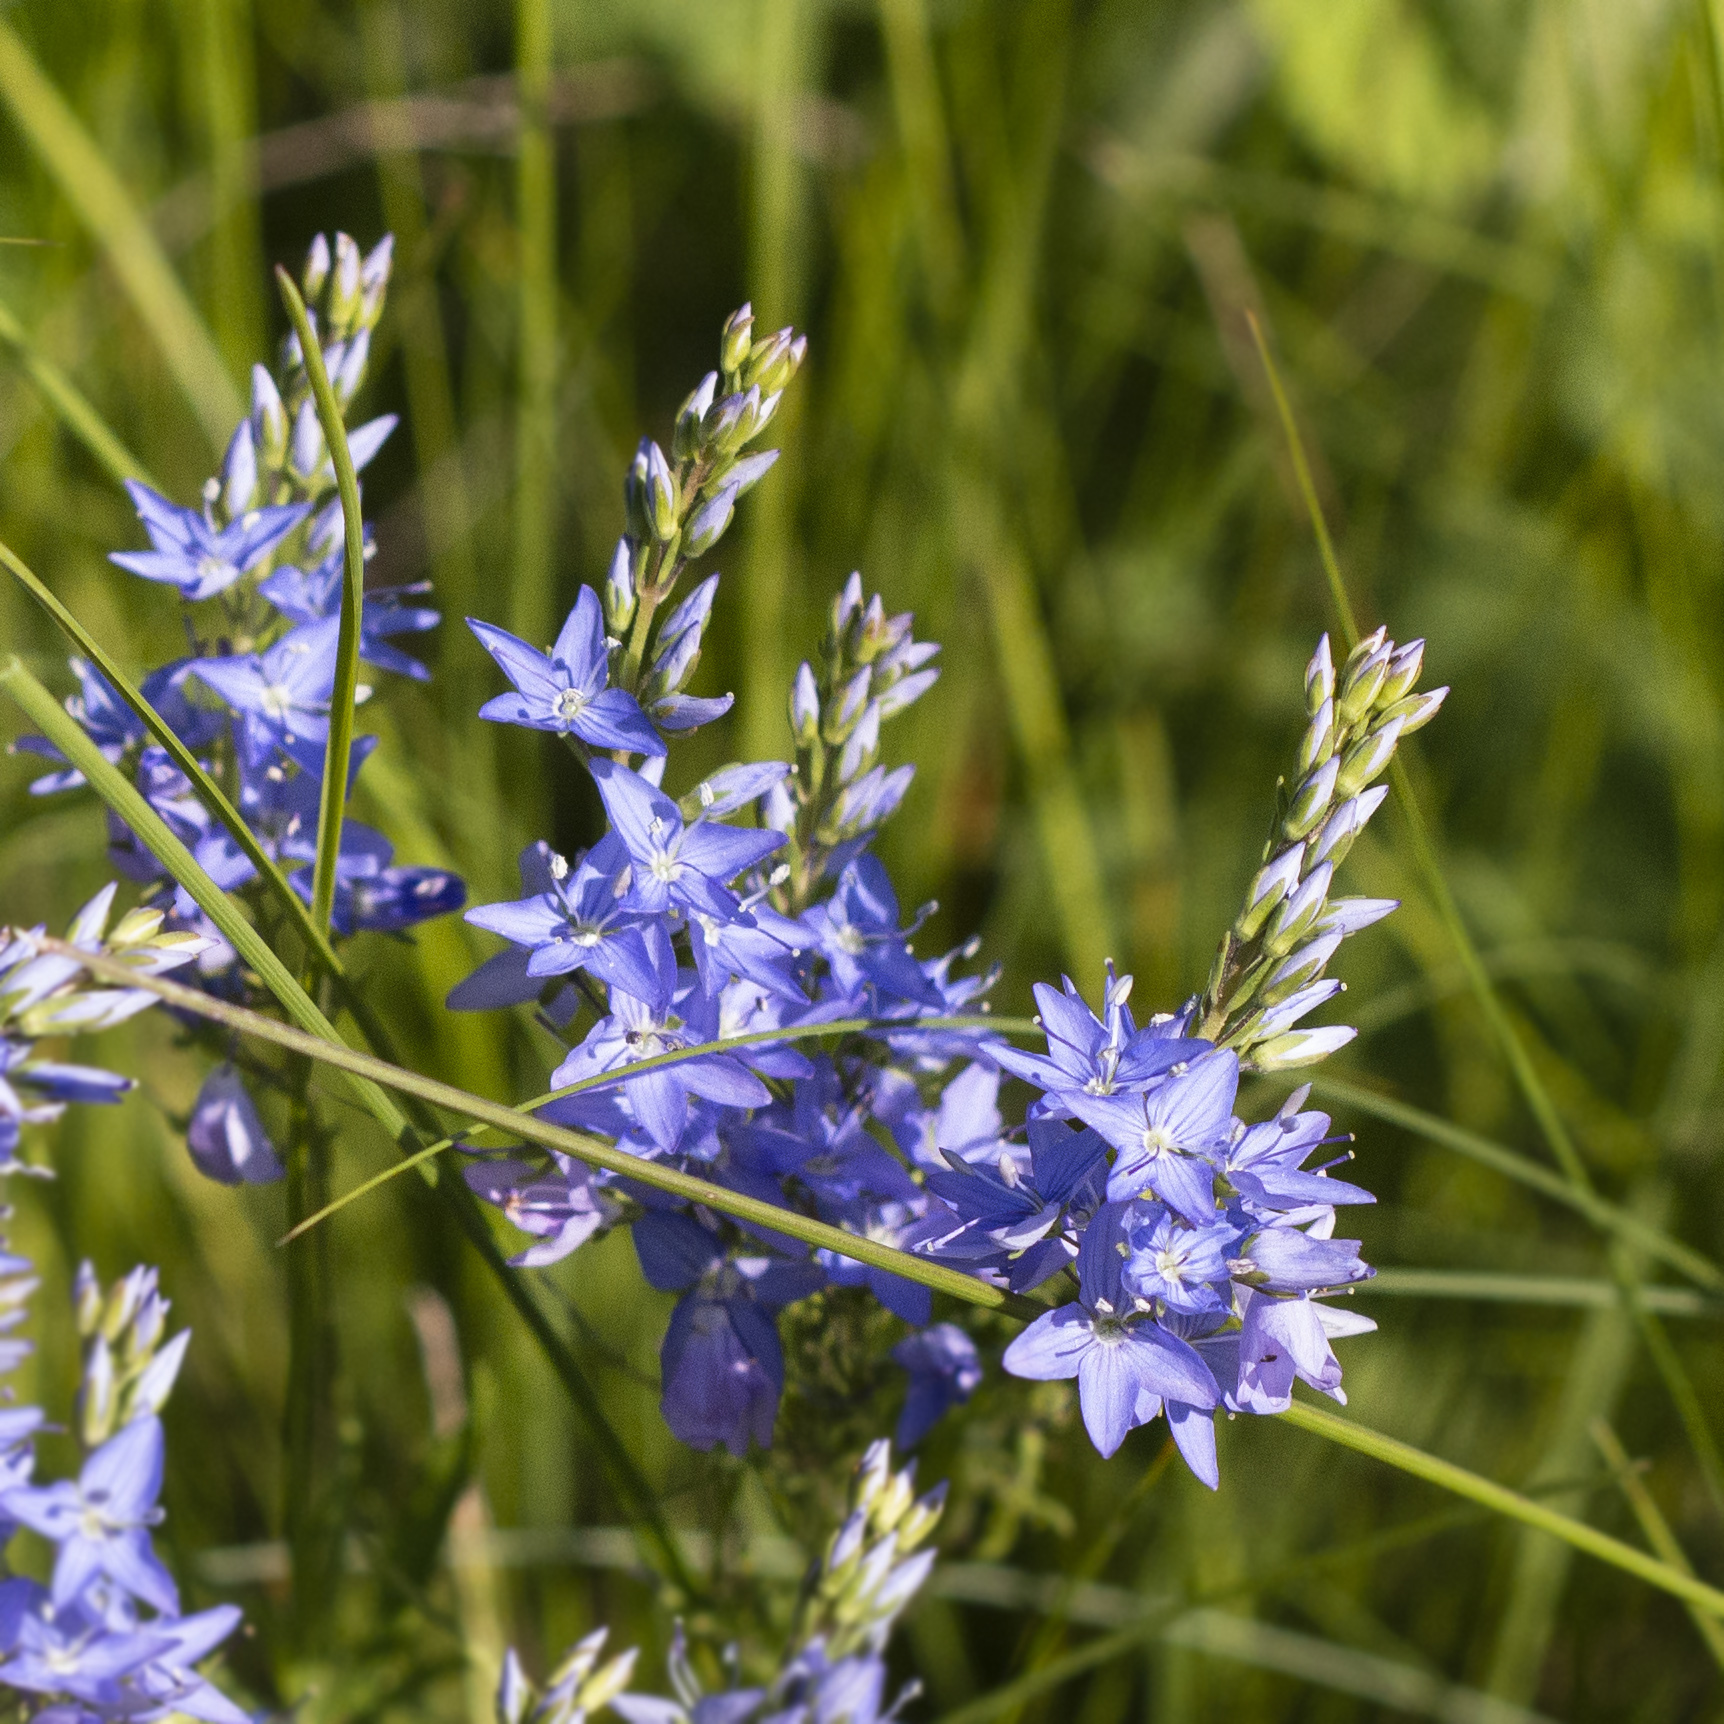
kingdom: Plantae
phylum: Tracheophyta
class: Magnoliopsida
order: Lamiales
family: Plantaginaceae
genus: Veronica
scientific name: Veronica austriaca
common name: Large speedwell
